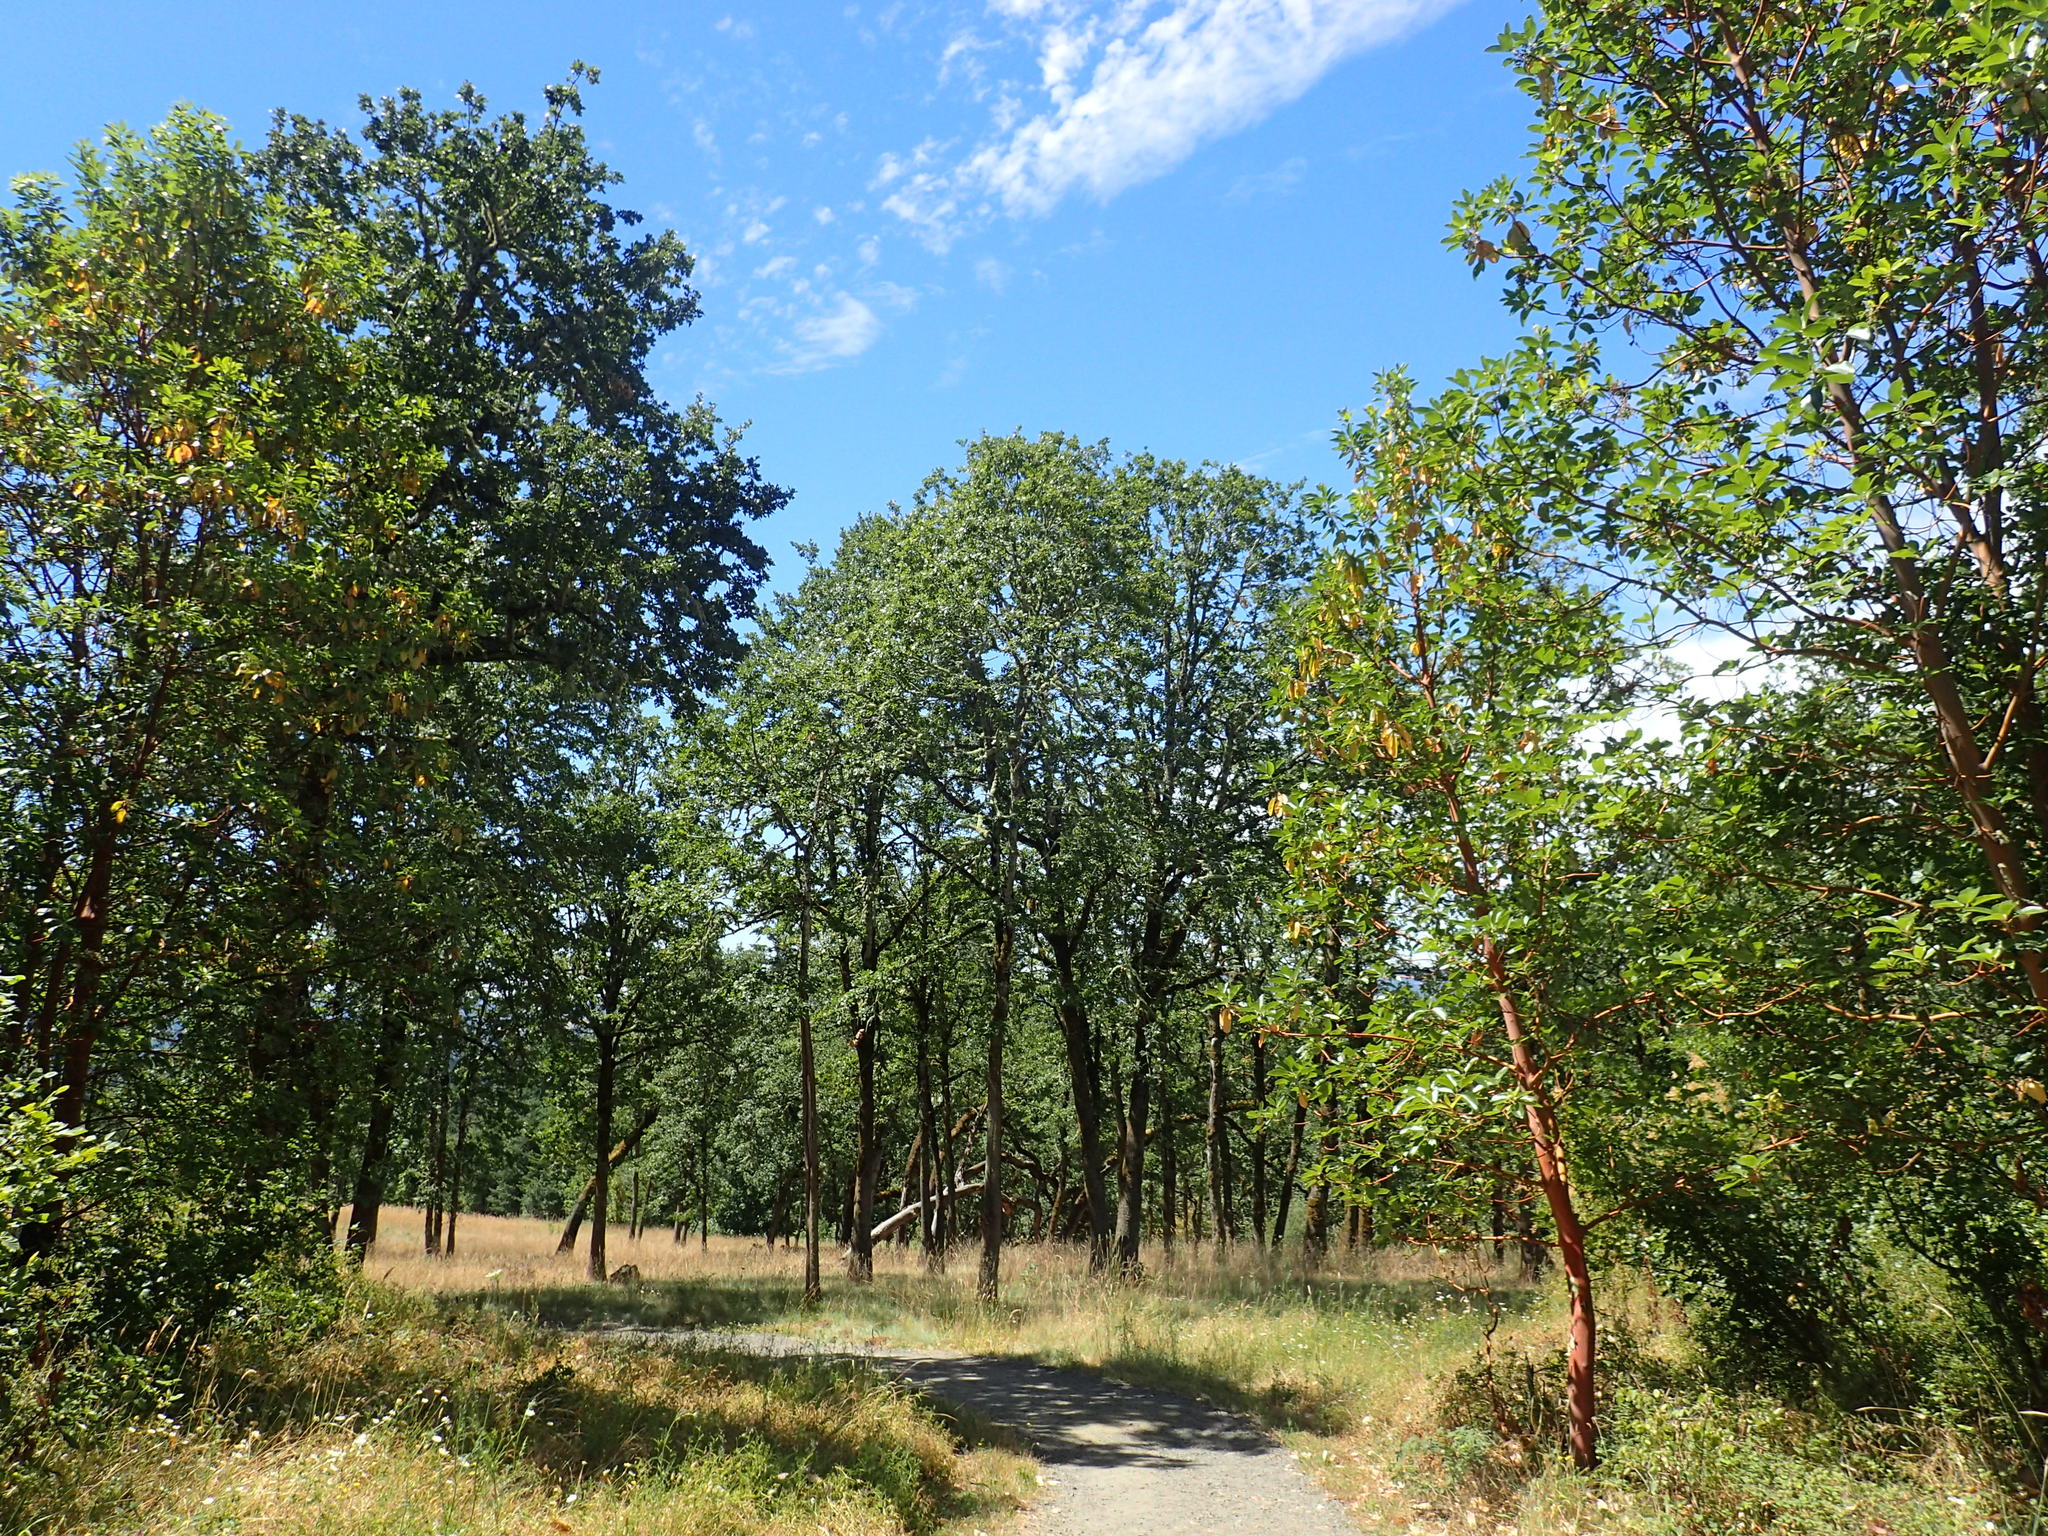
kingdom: Plantae
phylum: Tracheophyta
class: Magnoliopsida
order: Fagales
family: Fagaceae
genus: Quercus
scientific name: Quercus garryana
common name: Garry oak
